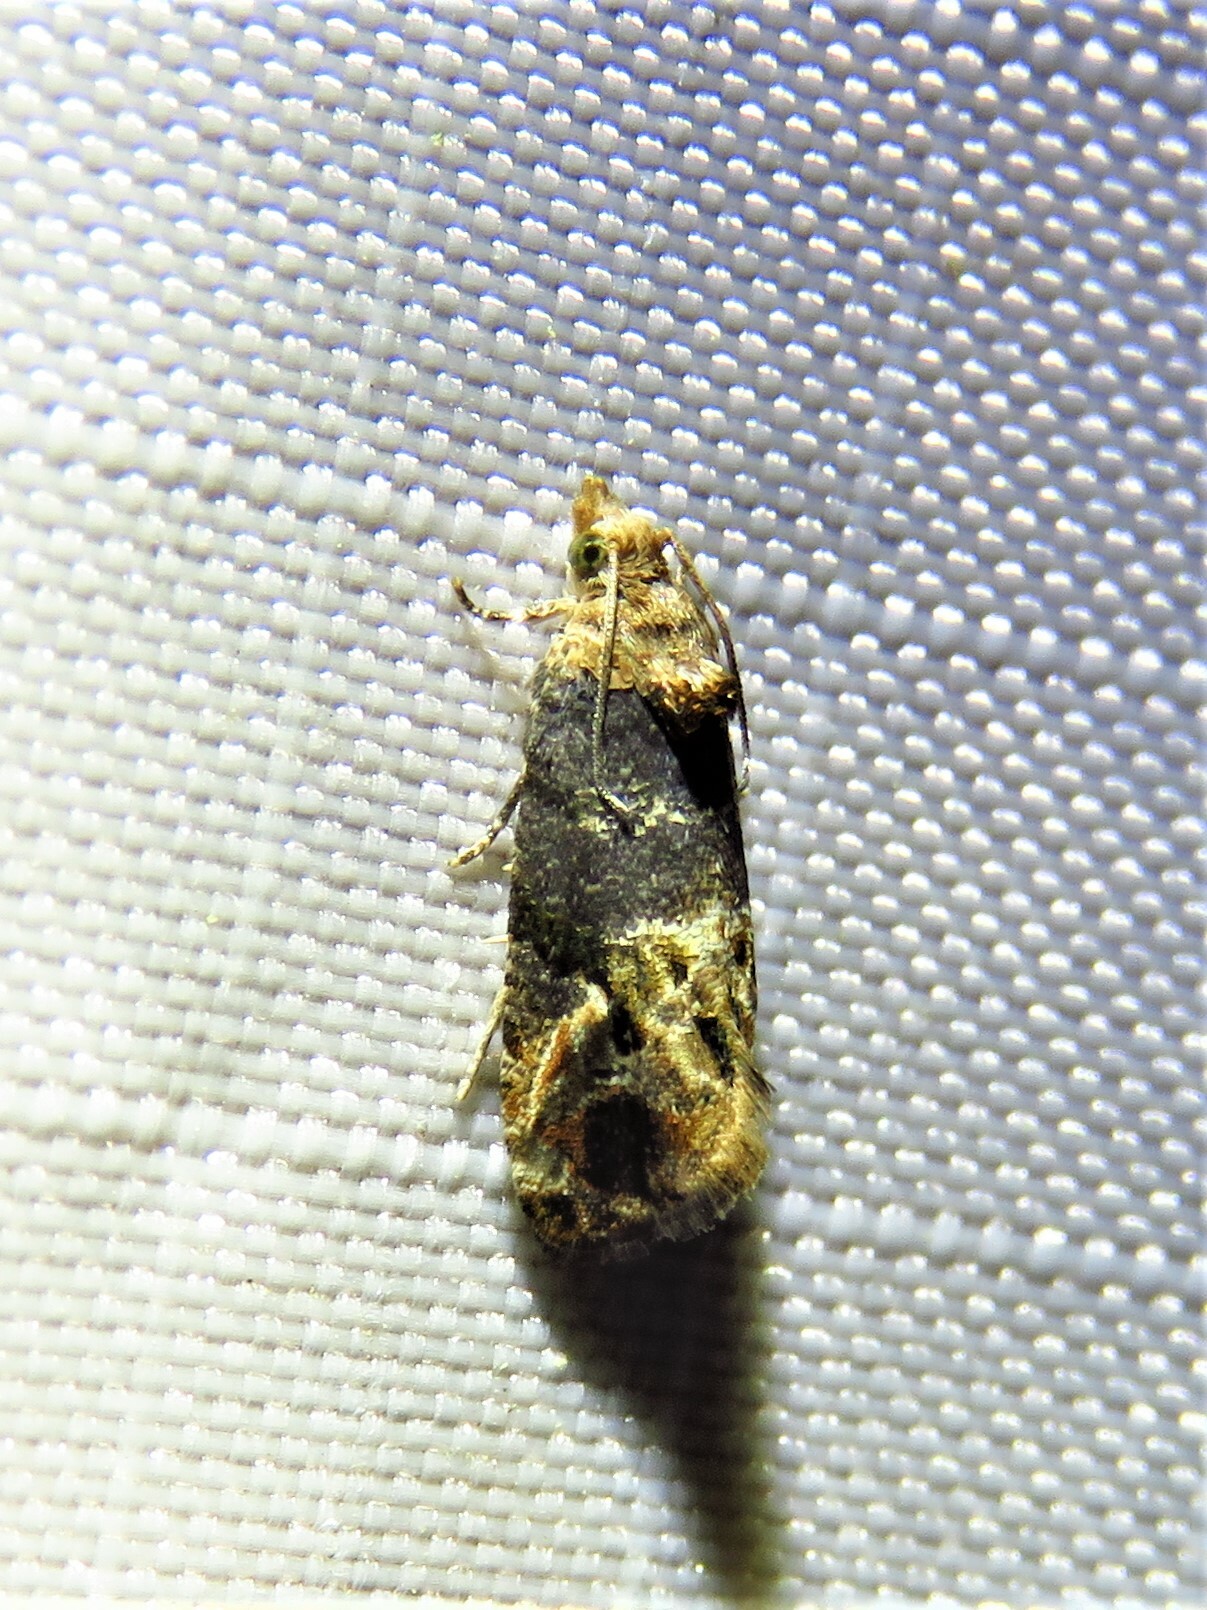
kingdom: Animalia
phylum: Arthropoda
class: Insecta
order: Lepidoptera
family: Tortricidae
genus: Paralobesia
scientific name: Paralobesia viteana
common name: Grape berry moth
